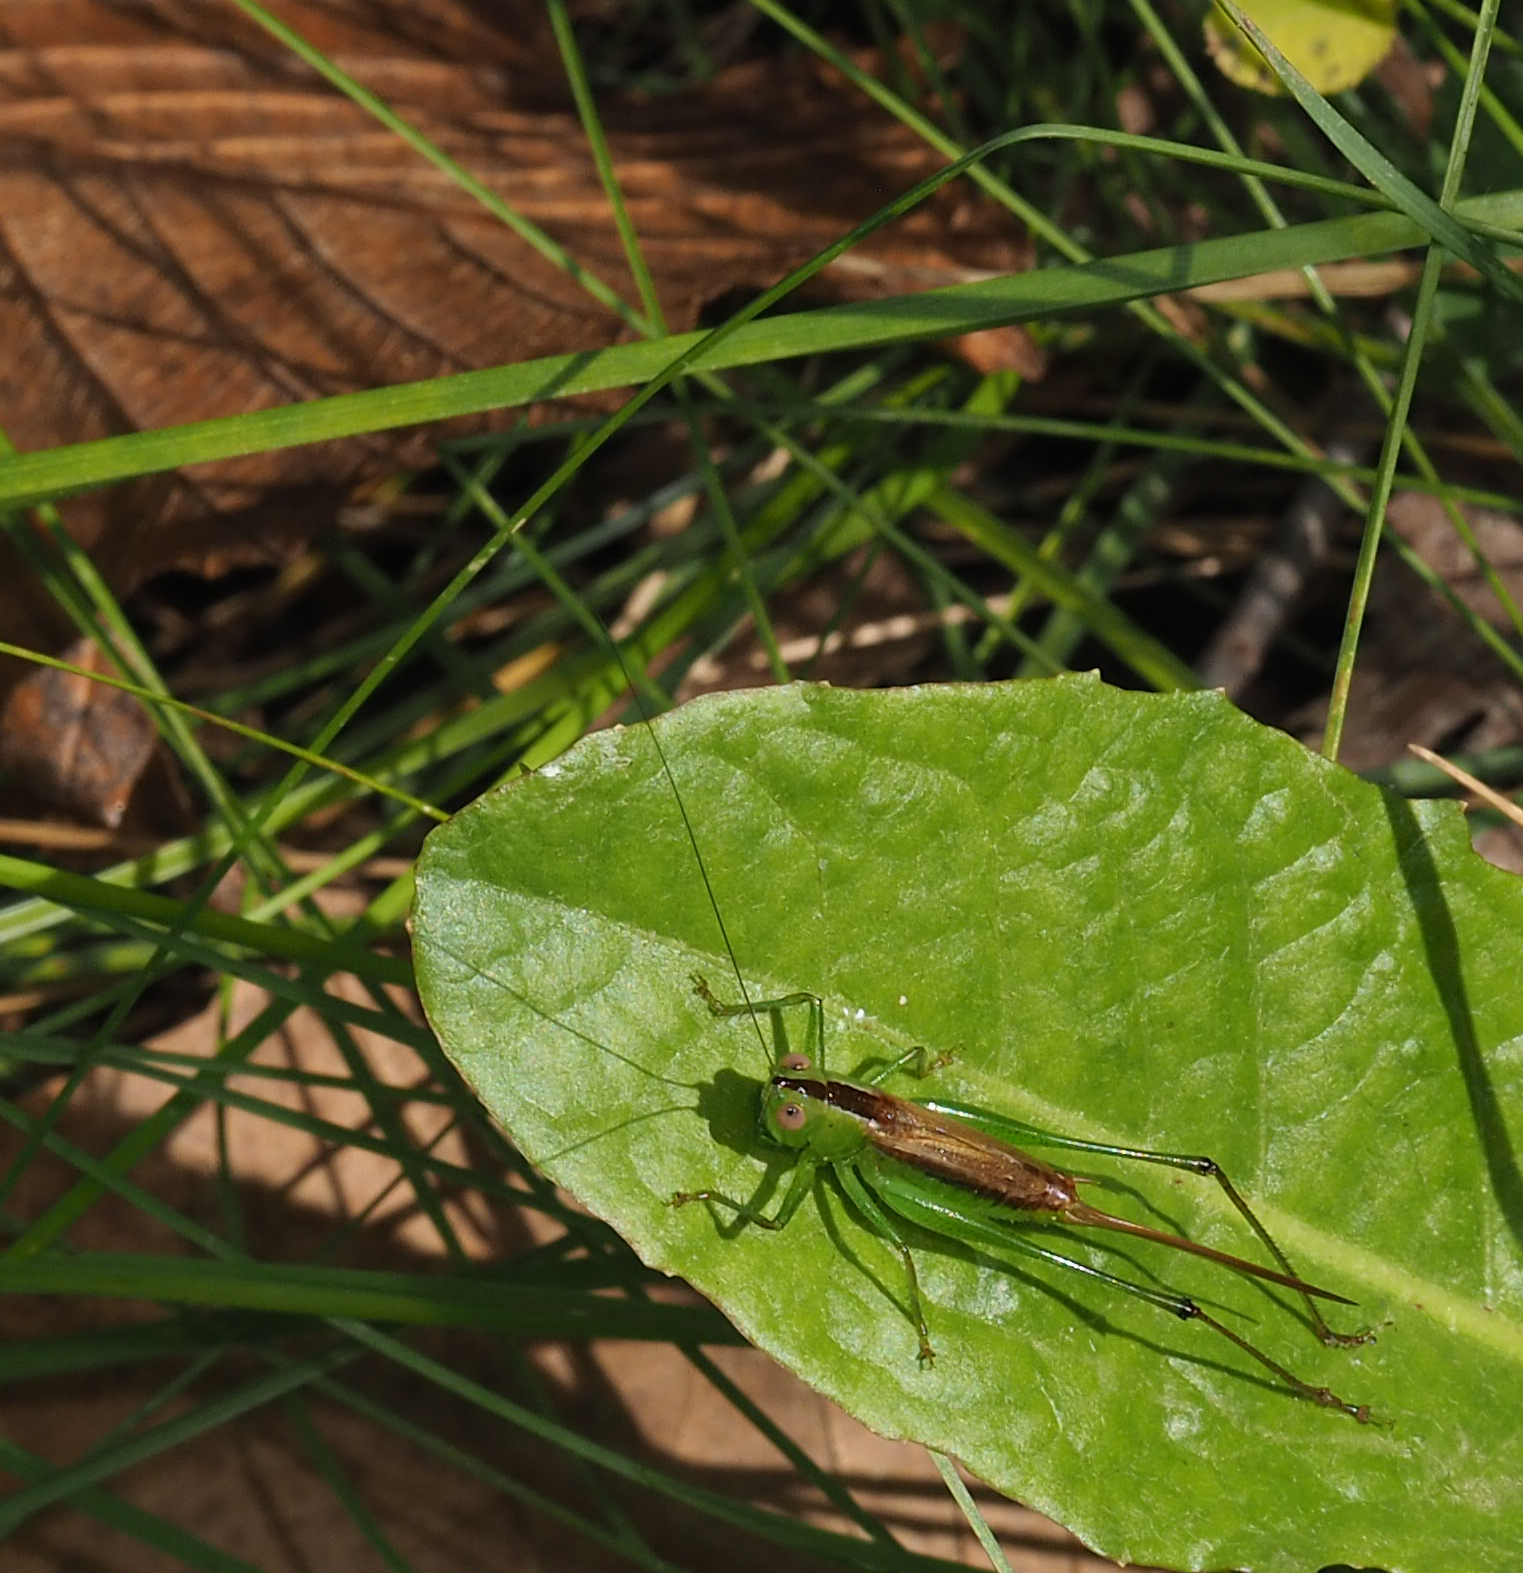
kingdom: Animalia
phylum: Arthropoda
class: Insecta
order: Orthoptera
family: Tettigoniidae
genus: Conocephalus
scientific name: Conocephalus brevipennis
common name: Short-winged meadow katydid
